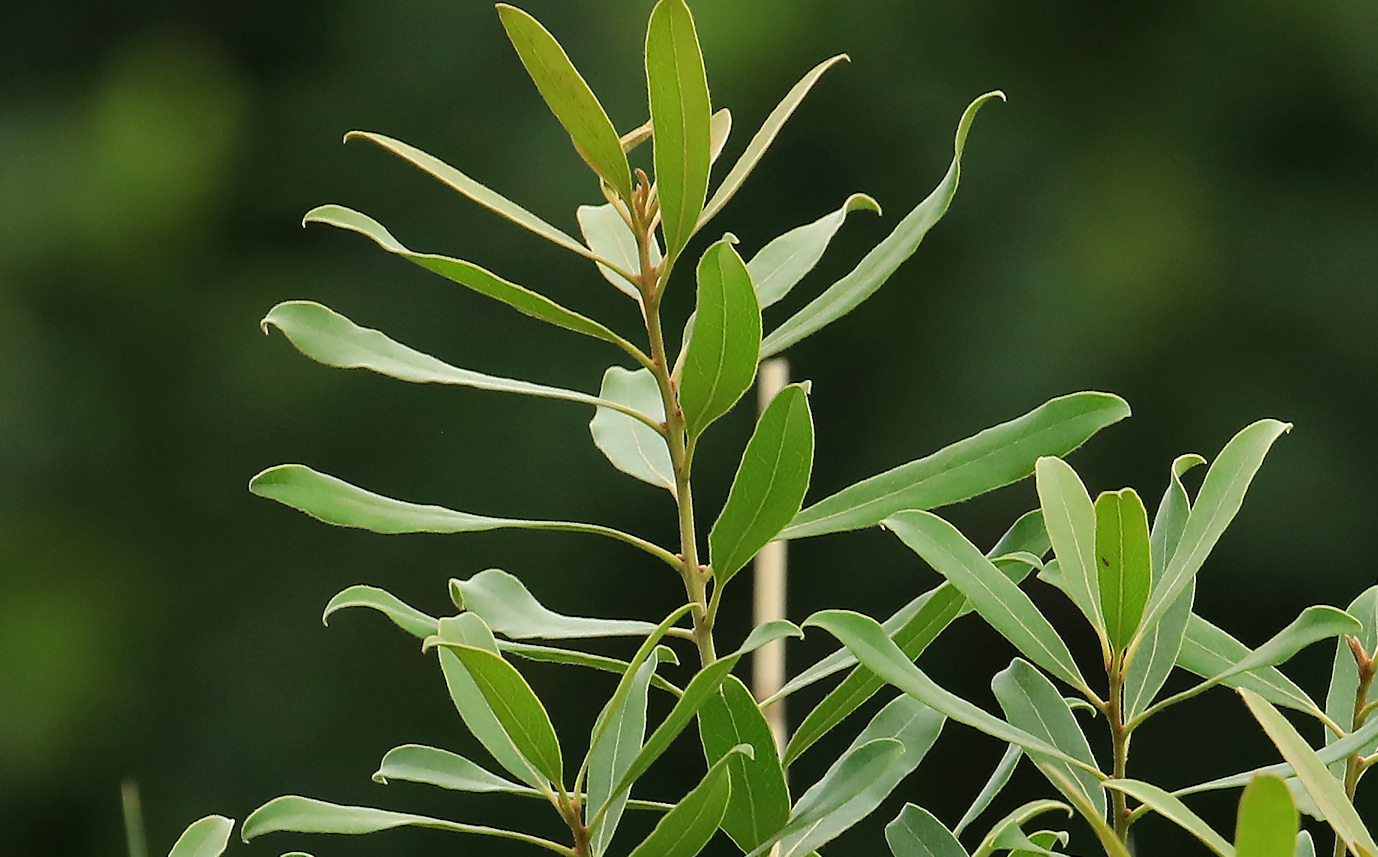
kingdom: Plantae
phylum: Tracheophyta
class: Magnoliopsida
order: Ericales
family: Ebenaceae
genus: Euclea
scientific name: Euclea natalensis
